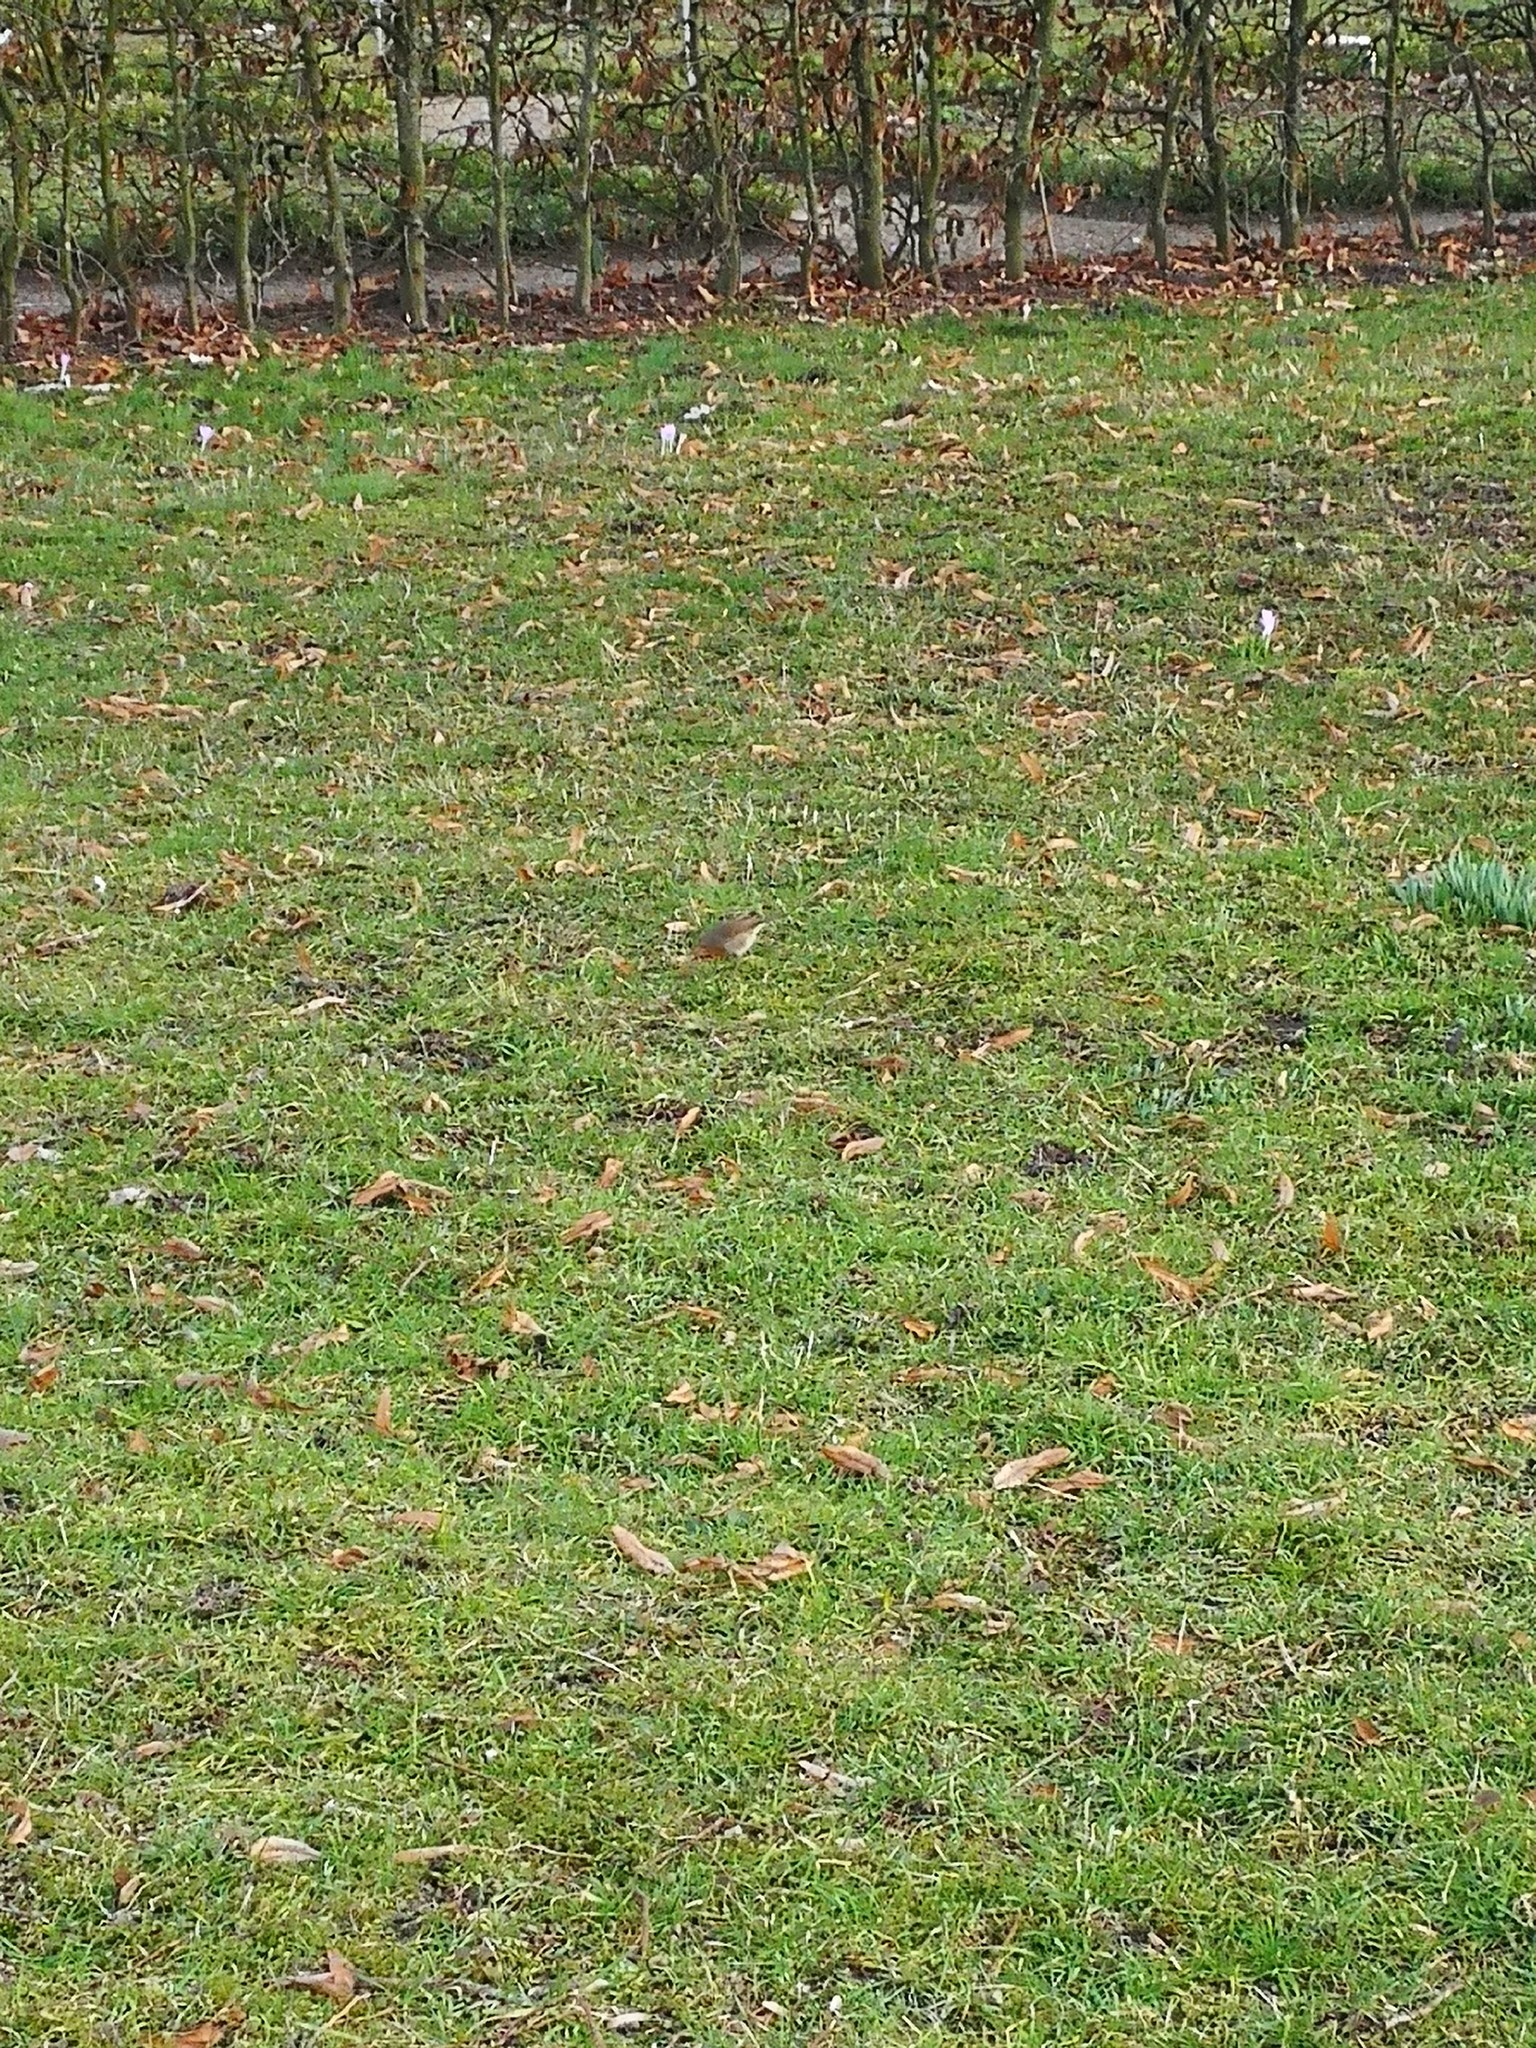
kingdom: Animalia
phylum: Chordata
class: Aves
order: Passeriformes
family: Muscicapidae
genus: Erithacus
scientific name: Erithacus rubecula
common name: European robin
